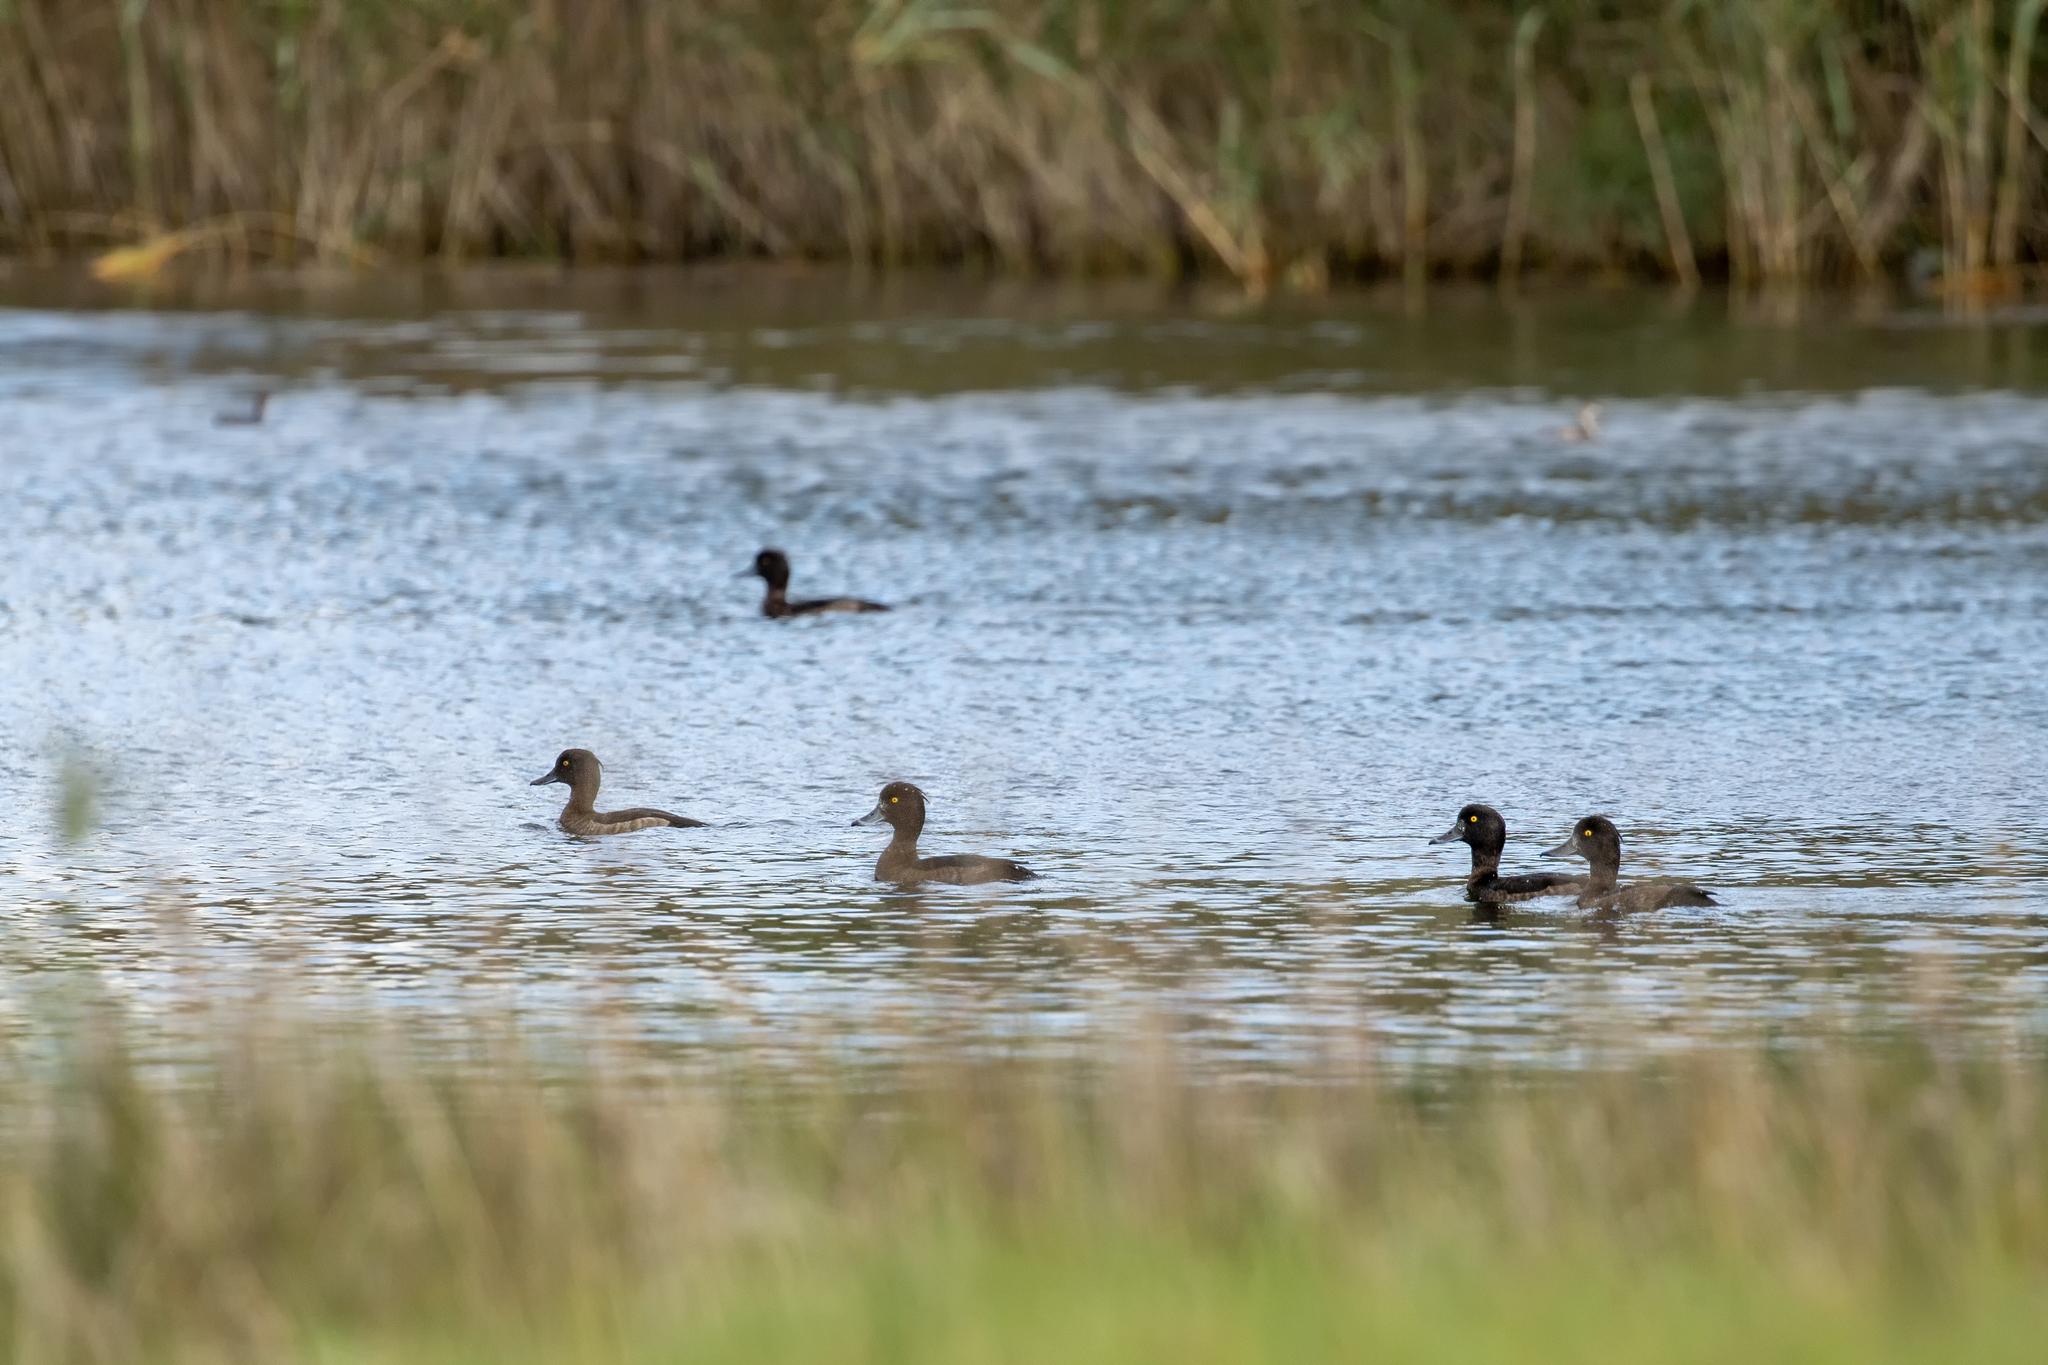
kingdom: Animalia
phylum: Chordata
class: Aves
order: Anseriformes
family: Anatidae
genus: Aythya
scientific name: Aythya fuligula
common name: Tufted duck
